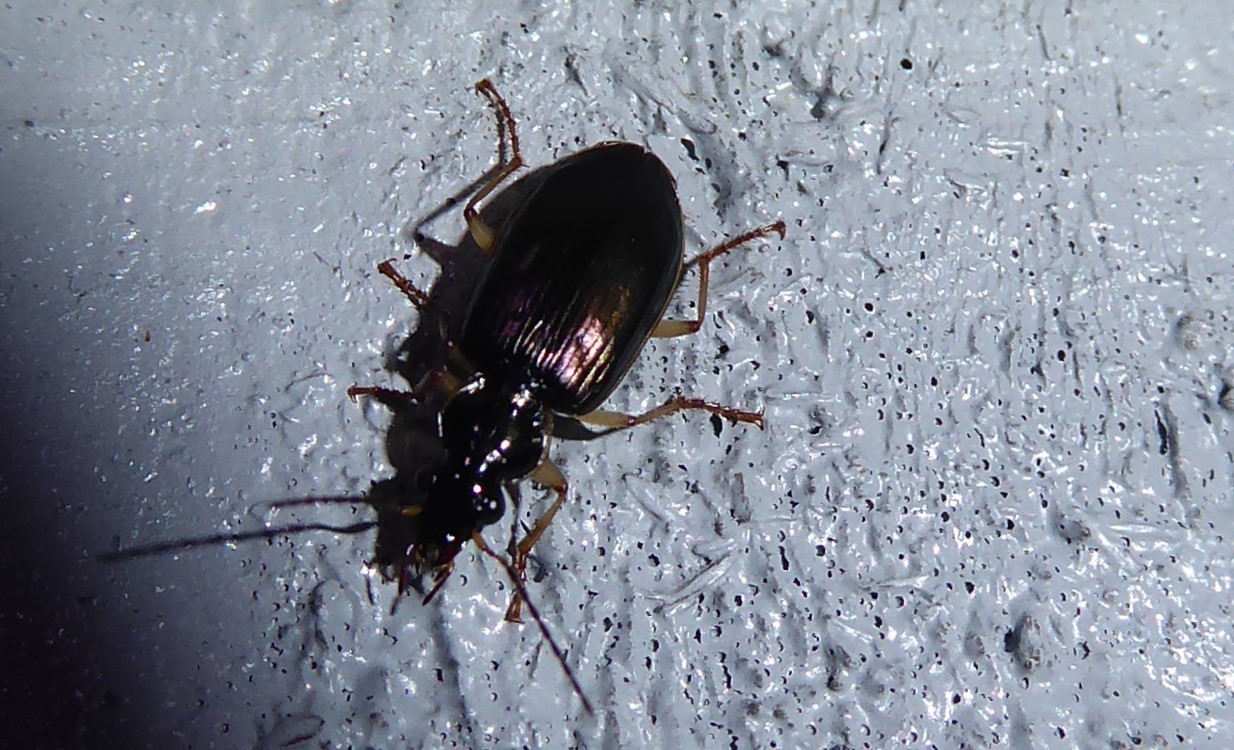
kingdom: Animalia
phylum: Arthropoda
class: Insecta
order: Coleoptera
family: Carabidae
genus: Notagonum
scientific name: Notagonum submetallicum
